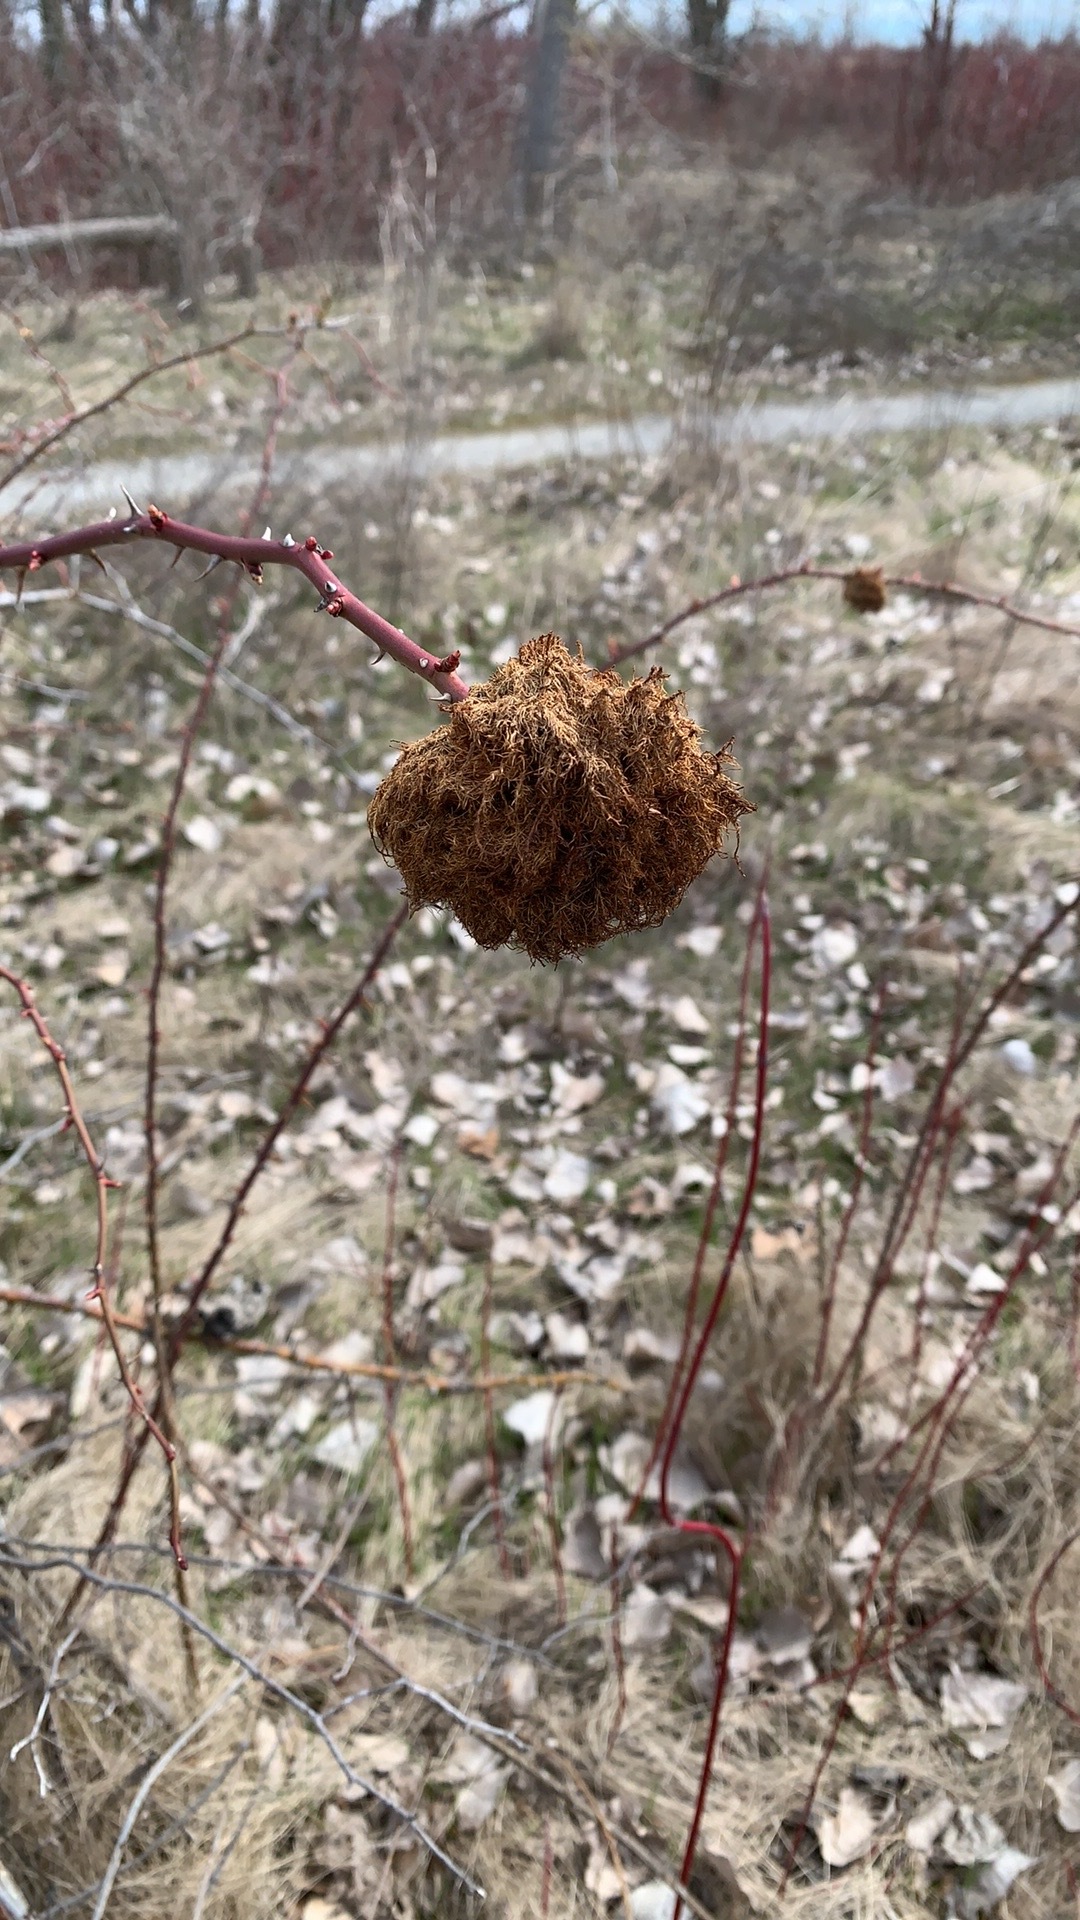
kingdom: Animalia
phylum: Arthropoda
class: Insecta
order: Hymenoptera
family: Cynipidae
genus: Diplolepis
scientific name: Diplolepis rosae
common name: Bedeguar gall
